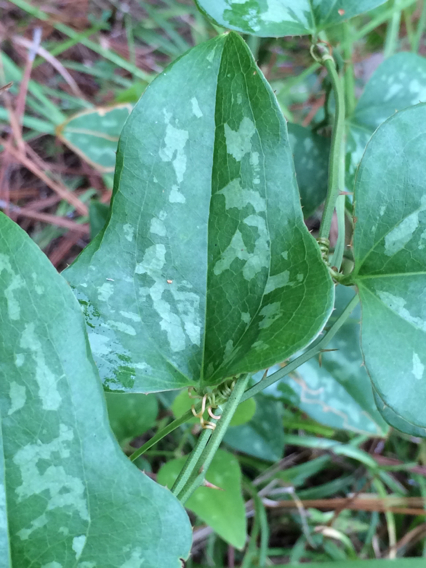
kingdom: Plantae
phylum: Tracheophyta
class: Liliopsida
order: Liliales
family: Smilacaceae
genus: Smilax
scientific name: Smilax bona-nox
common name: Catbrier
